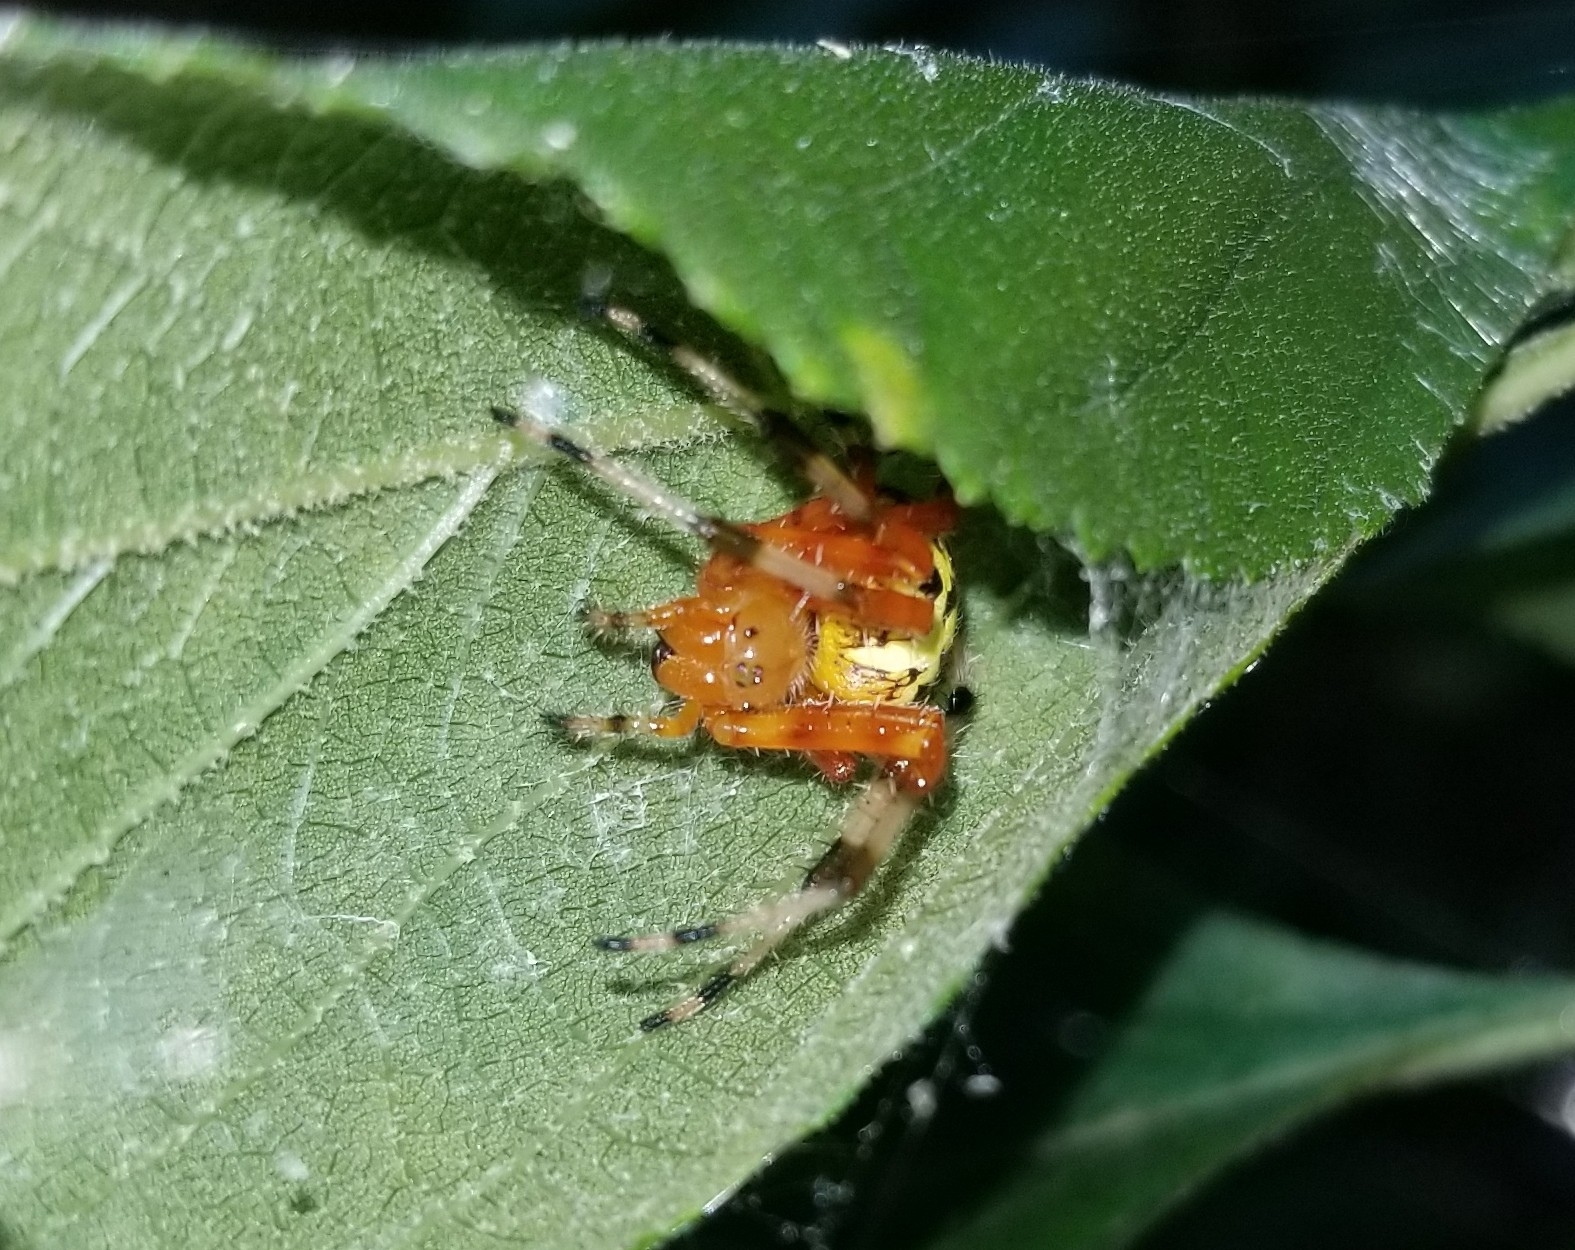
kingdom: Animalia
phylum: Arthropoda
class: Arachnida
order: Araneae
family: Araneidae
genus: Araneus
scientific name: Araneus marmoreus
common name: Marbled orbweaver
